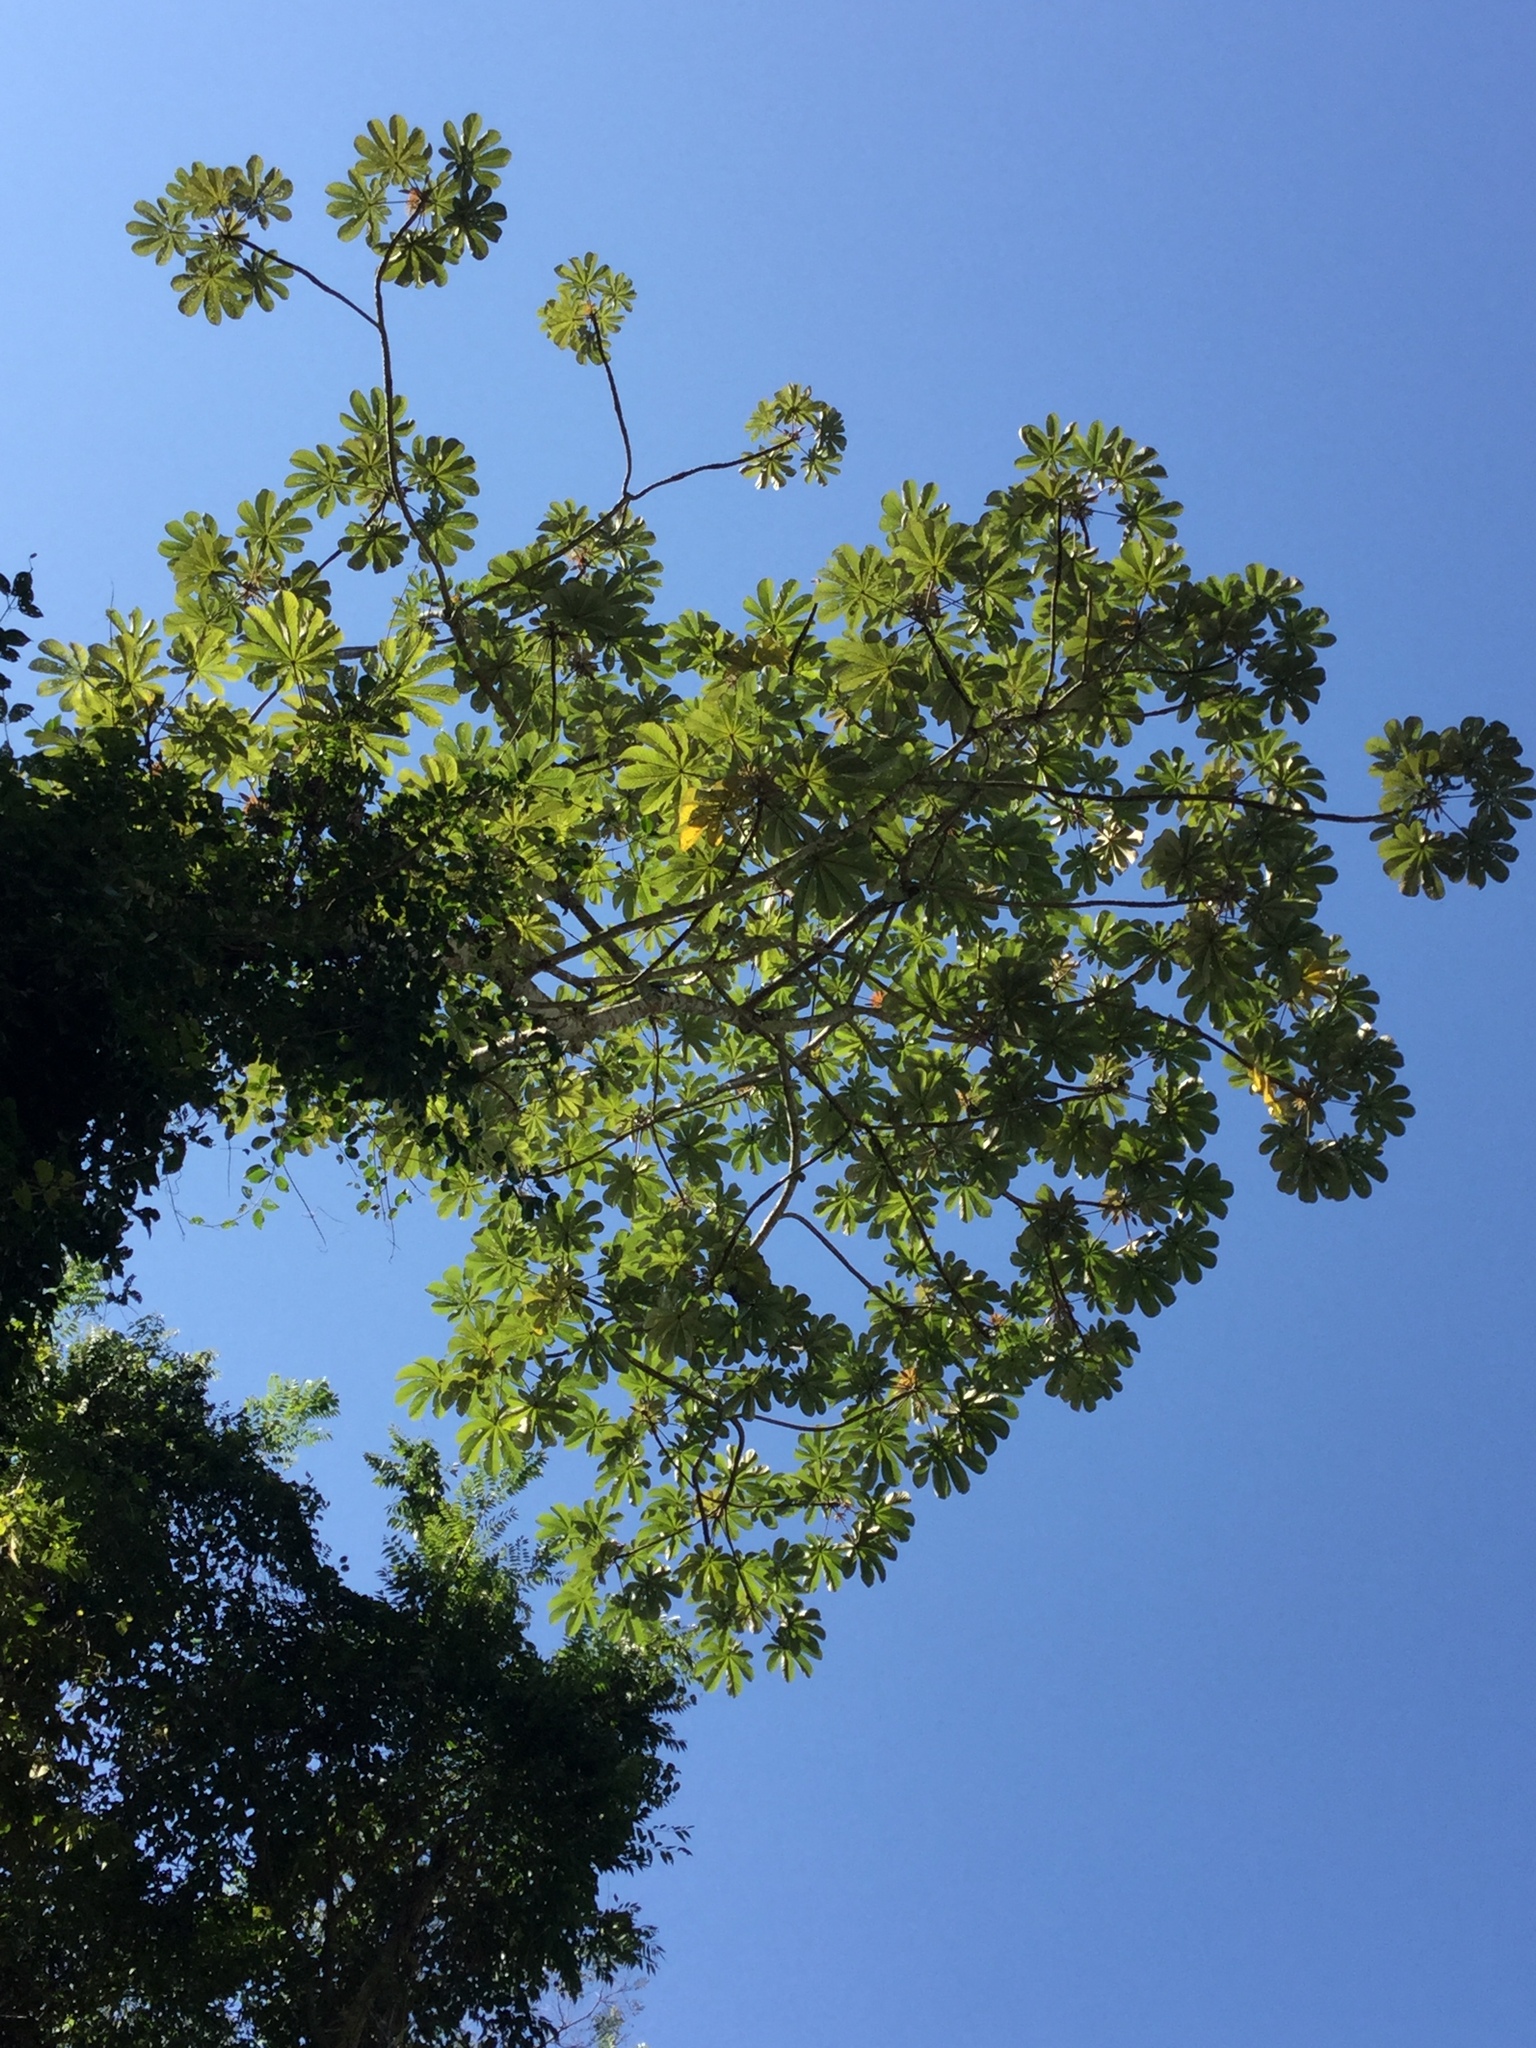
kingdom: Plantae
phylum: Tracheophyta
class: Magnoliopsida
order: Rosales
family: Urticaceae
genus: Cecropia
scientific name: Cecropia obtusifolia
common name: Trumpet tree
